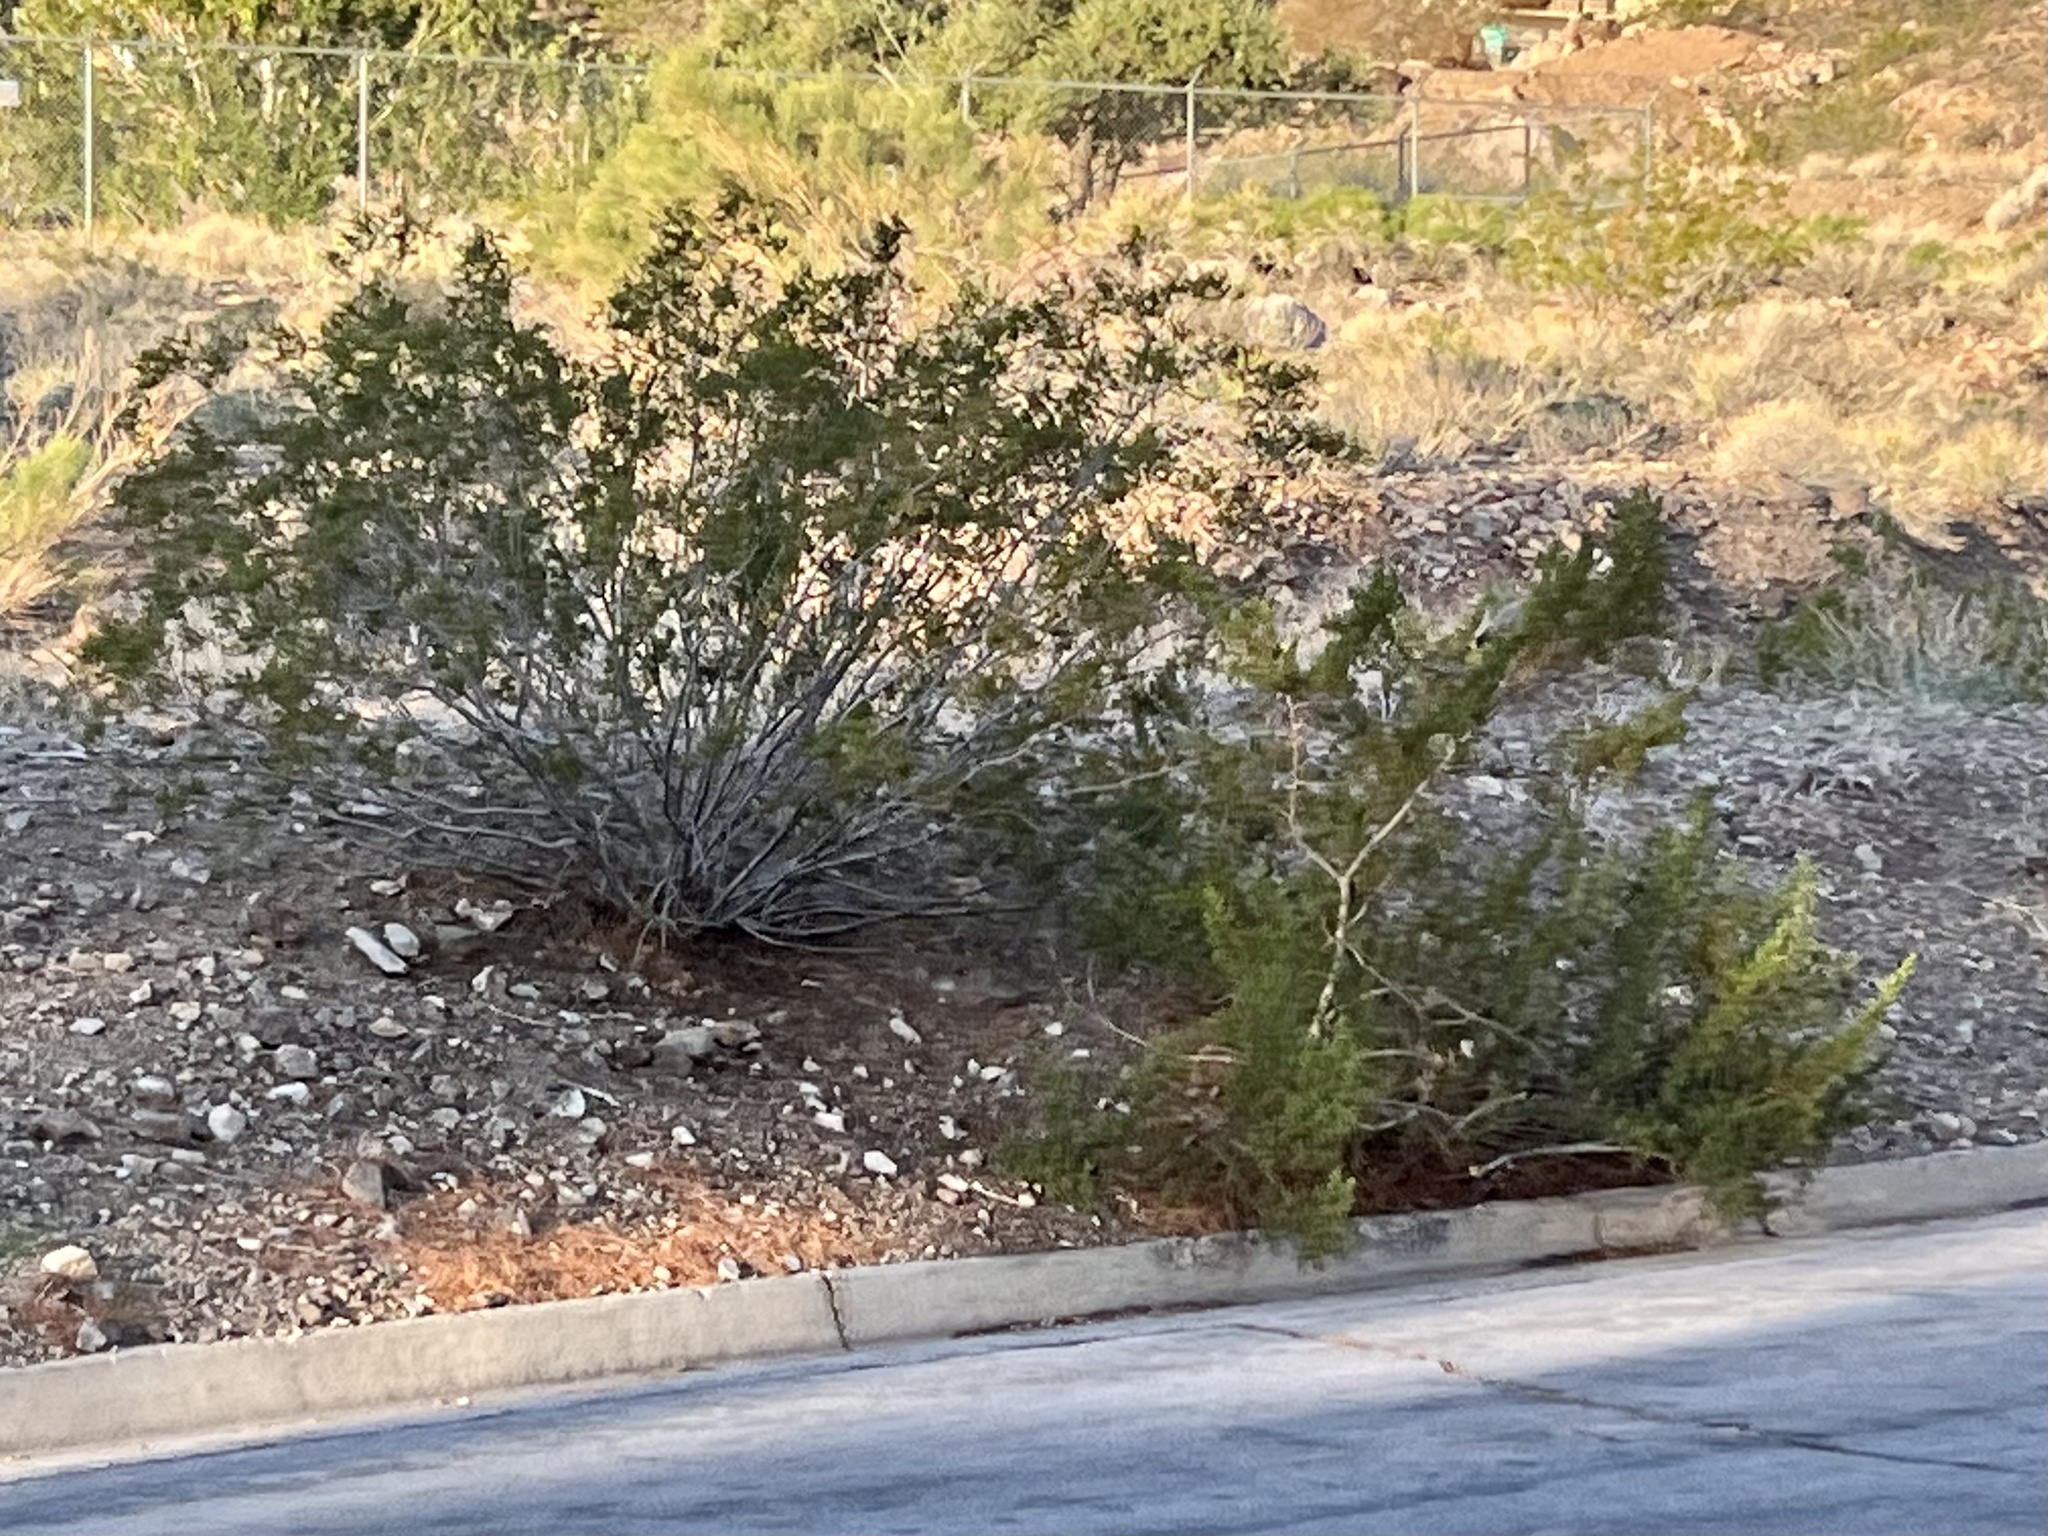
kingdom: Plantae
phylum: Tracheophyta
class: Magnoliopsida
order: Zygophyllales
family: Zygophyllaceae
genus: Larrea
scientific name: Larrea tridentata
